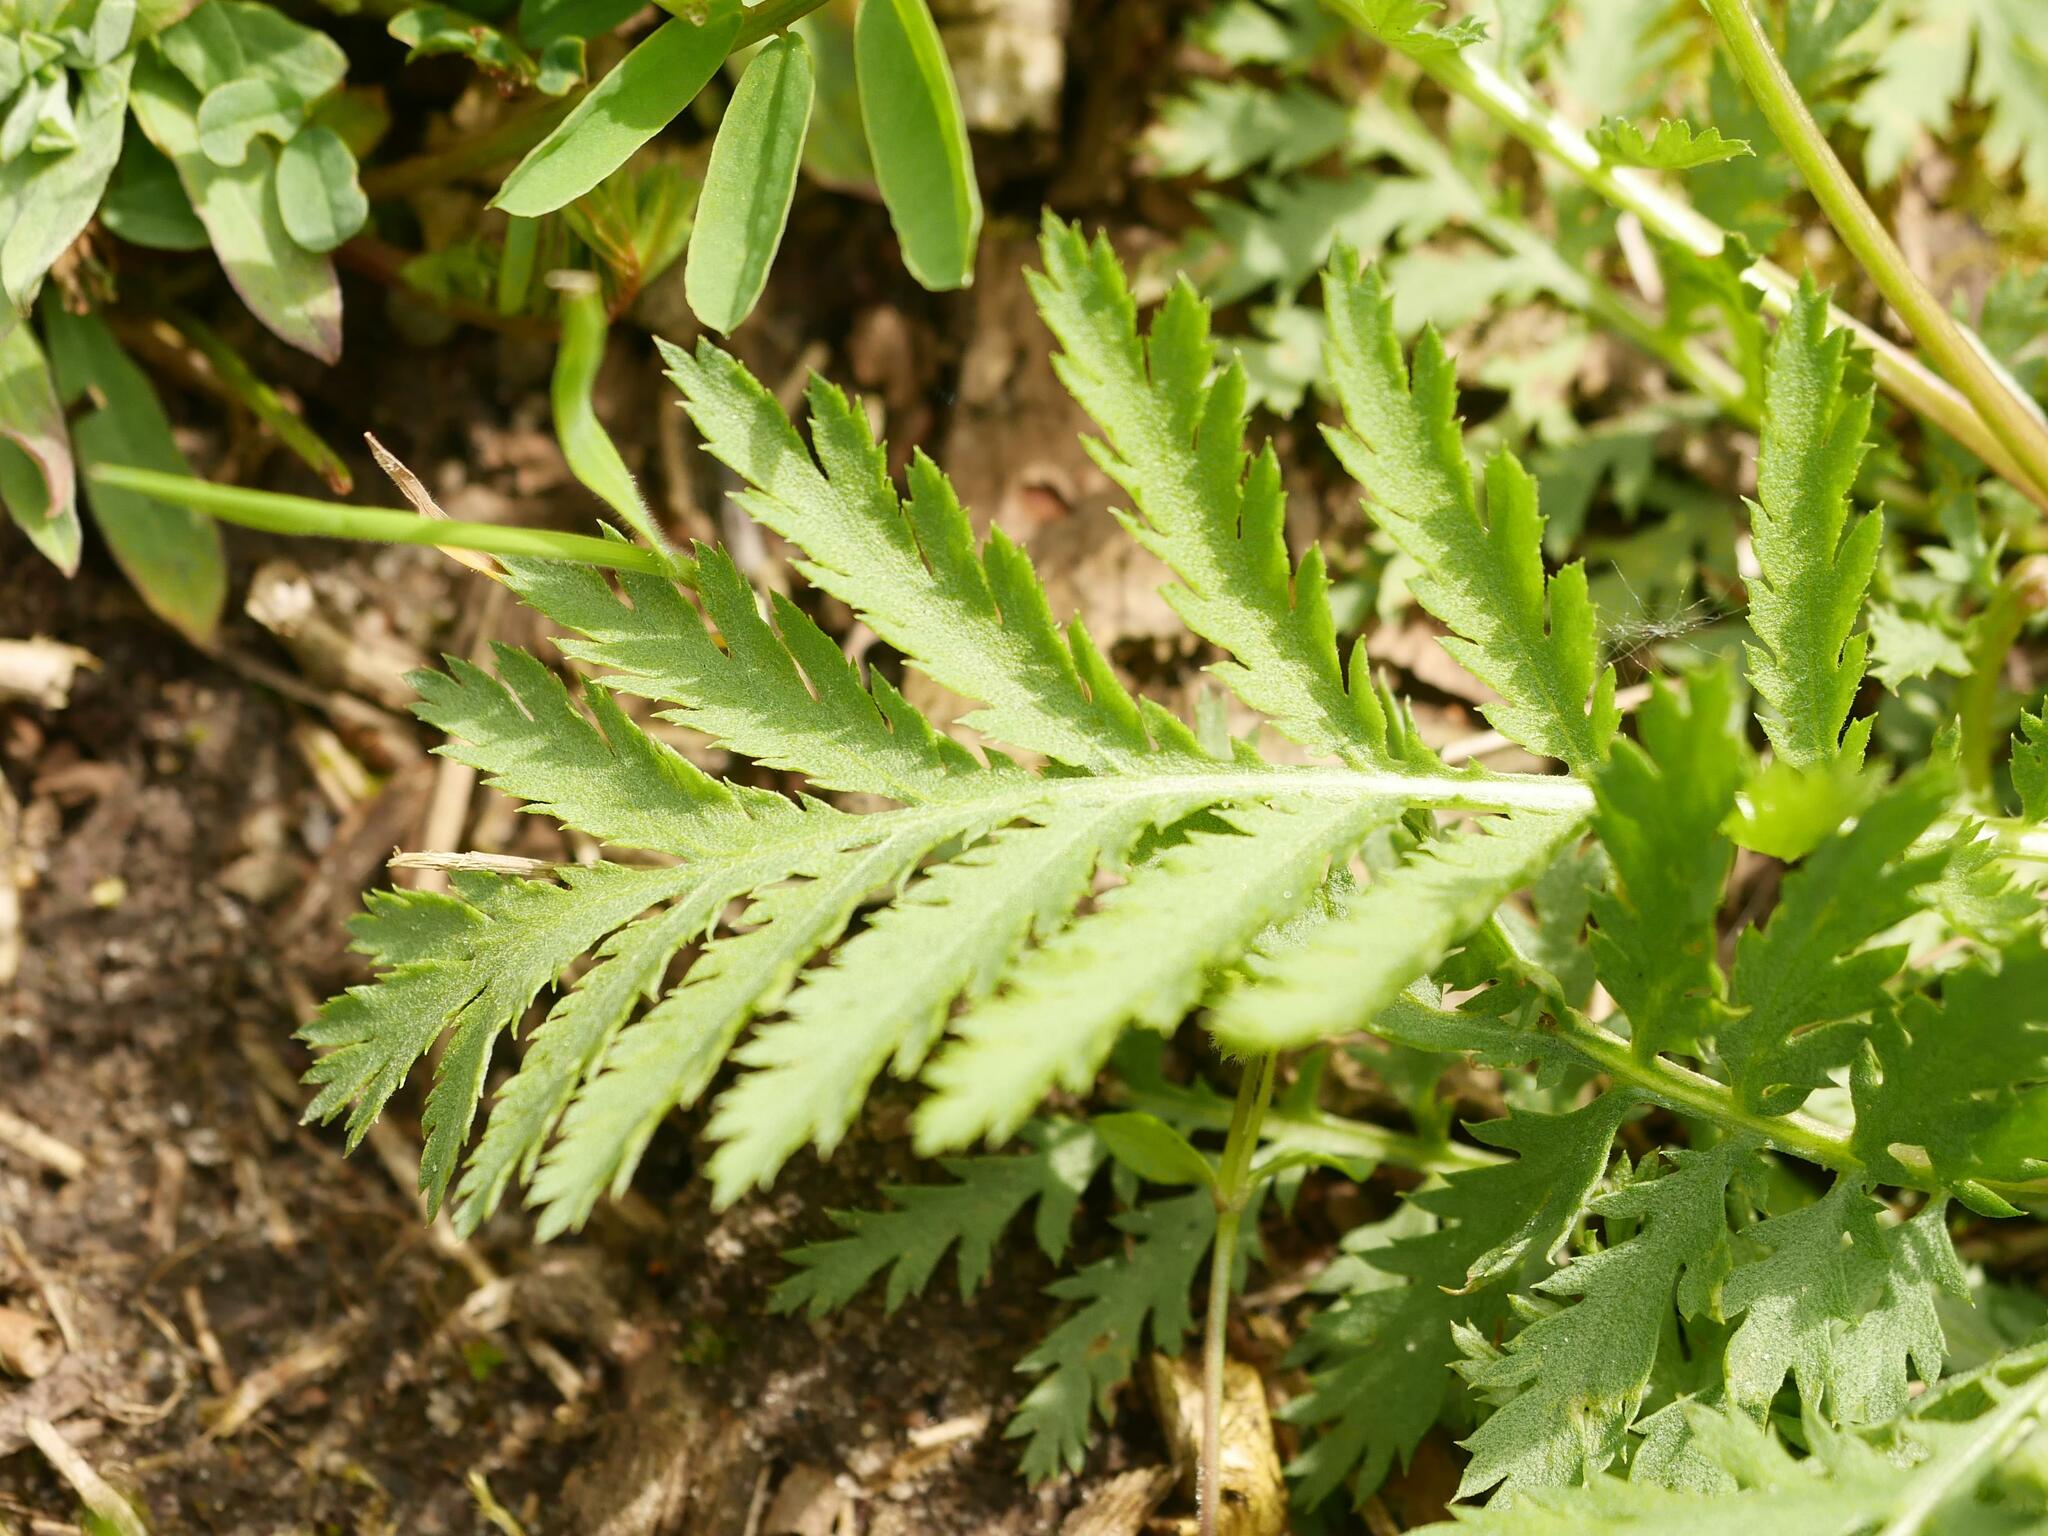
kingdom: Plantae
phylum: Tracheophyta
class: Magnoliopsida
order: Asterales
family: Asteraceae
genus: Tanacetum
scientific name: Tanacetum vulgare
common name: Common tansy
